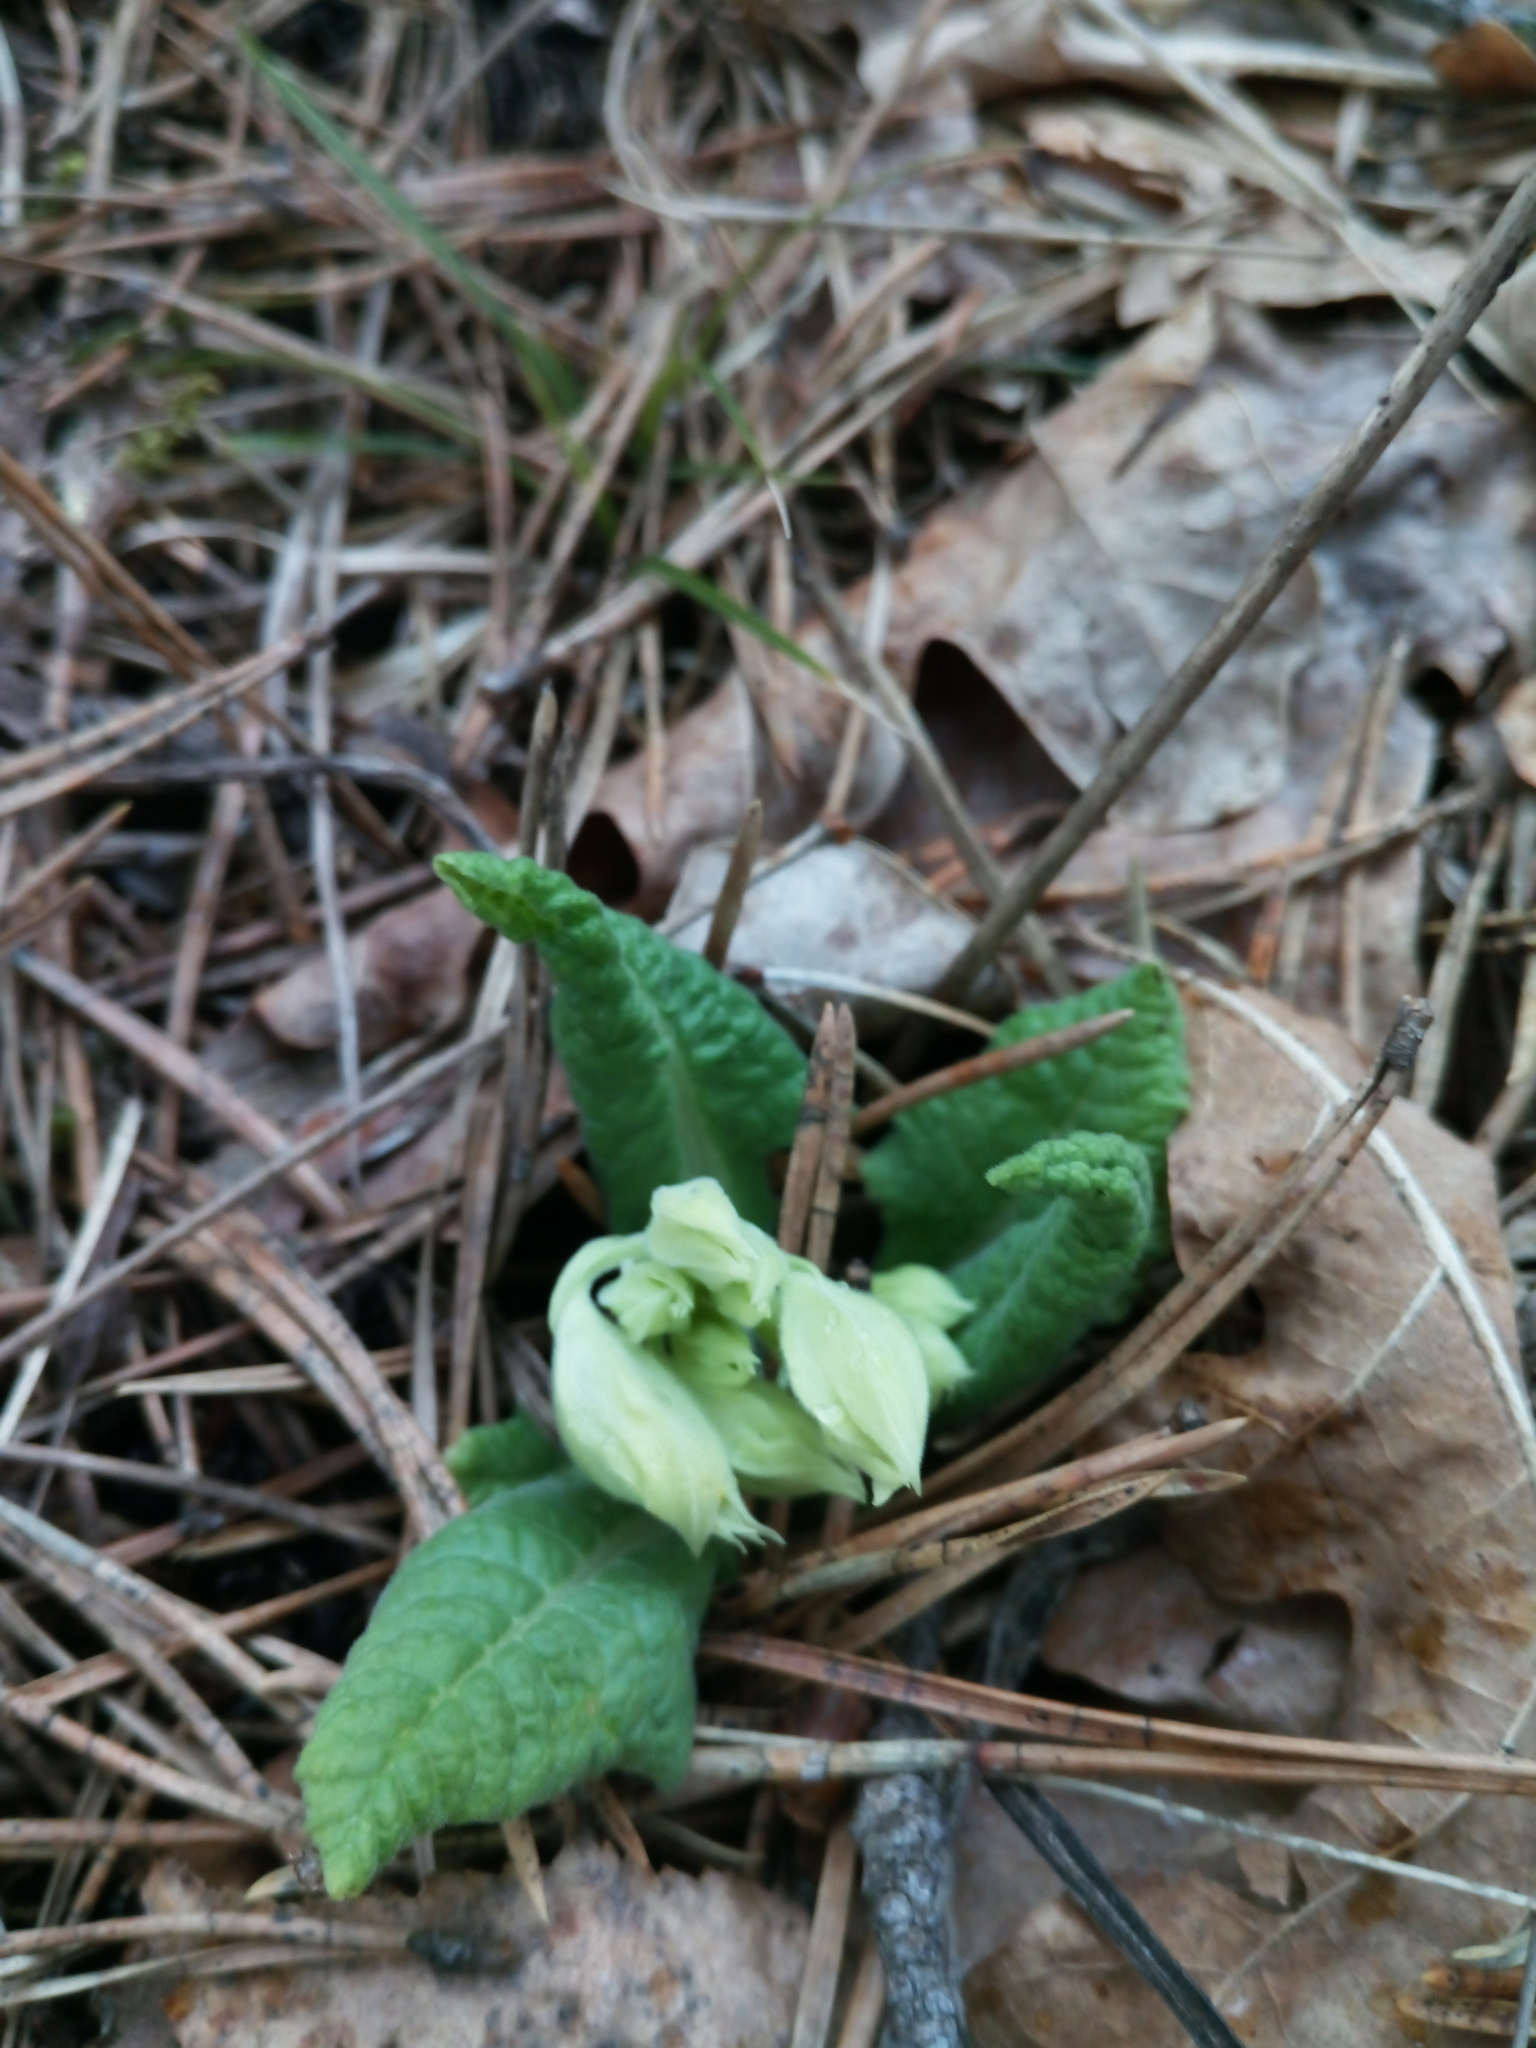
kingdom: Plantae
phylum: Tracheophyta
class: Magnoliopsida
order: Ericales
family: Primulaceae
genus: Primula
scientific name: Primula veris
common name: Cowslip
